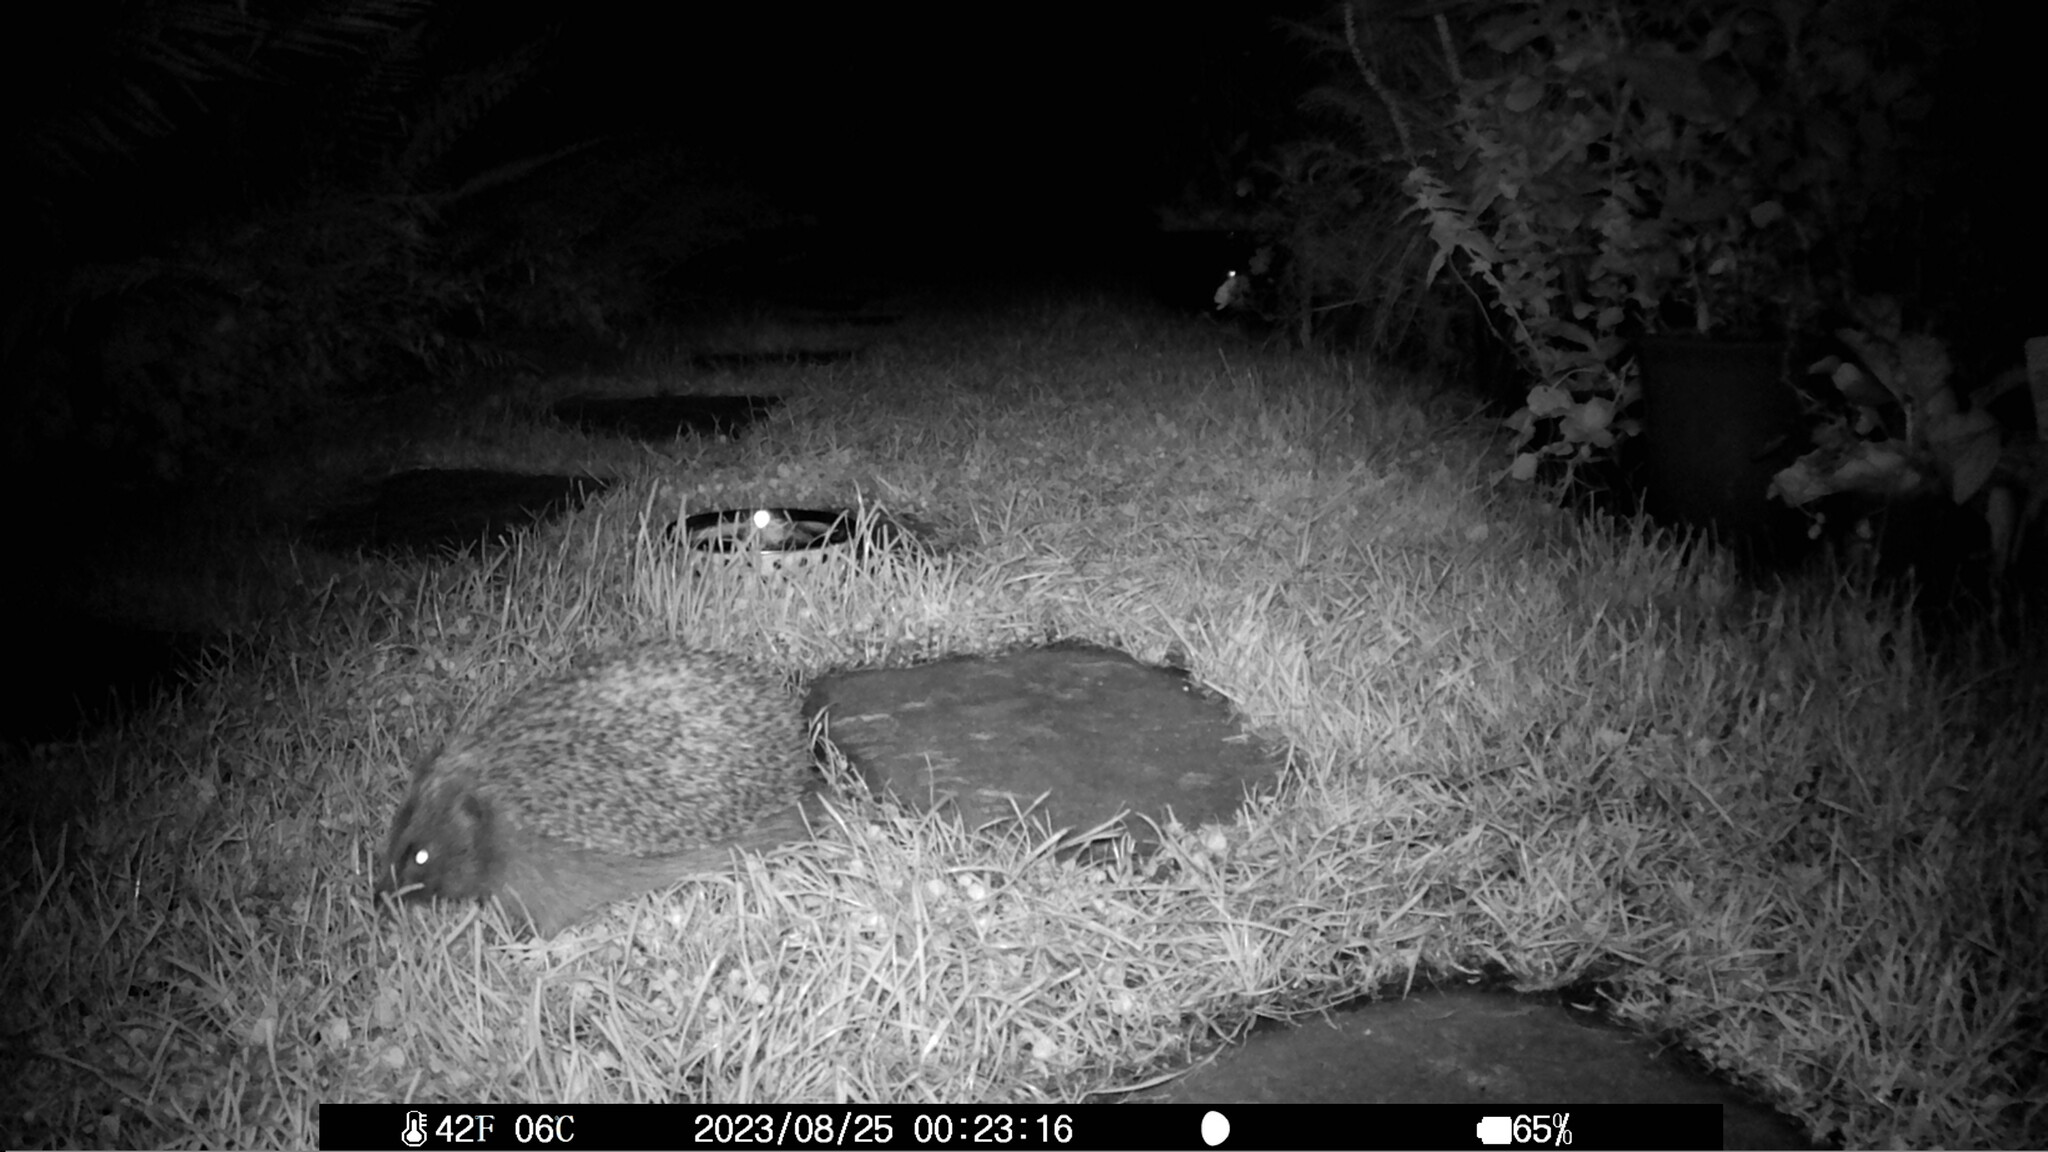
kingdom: Animalia
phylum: Chordata
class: Mammalia
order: Erinaceomorpha
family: Erinaceidae
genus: Erinaceus
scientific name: Erinaceus europaeus
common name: West european hedgehog
